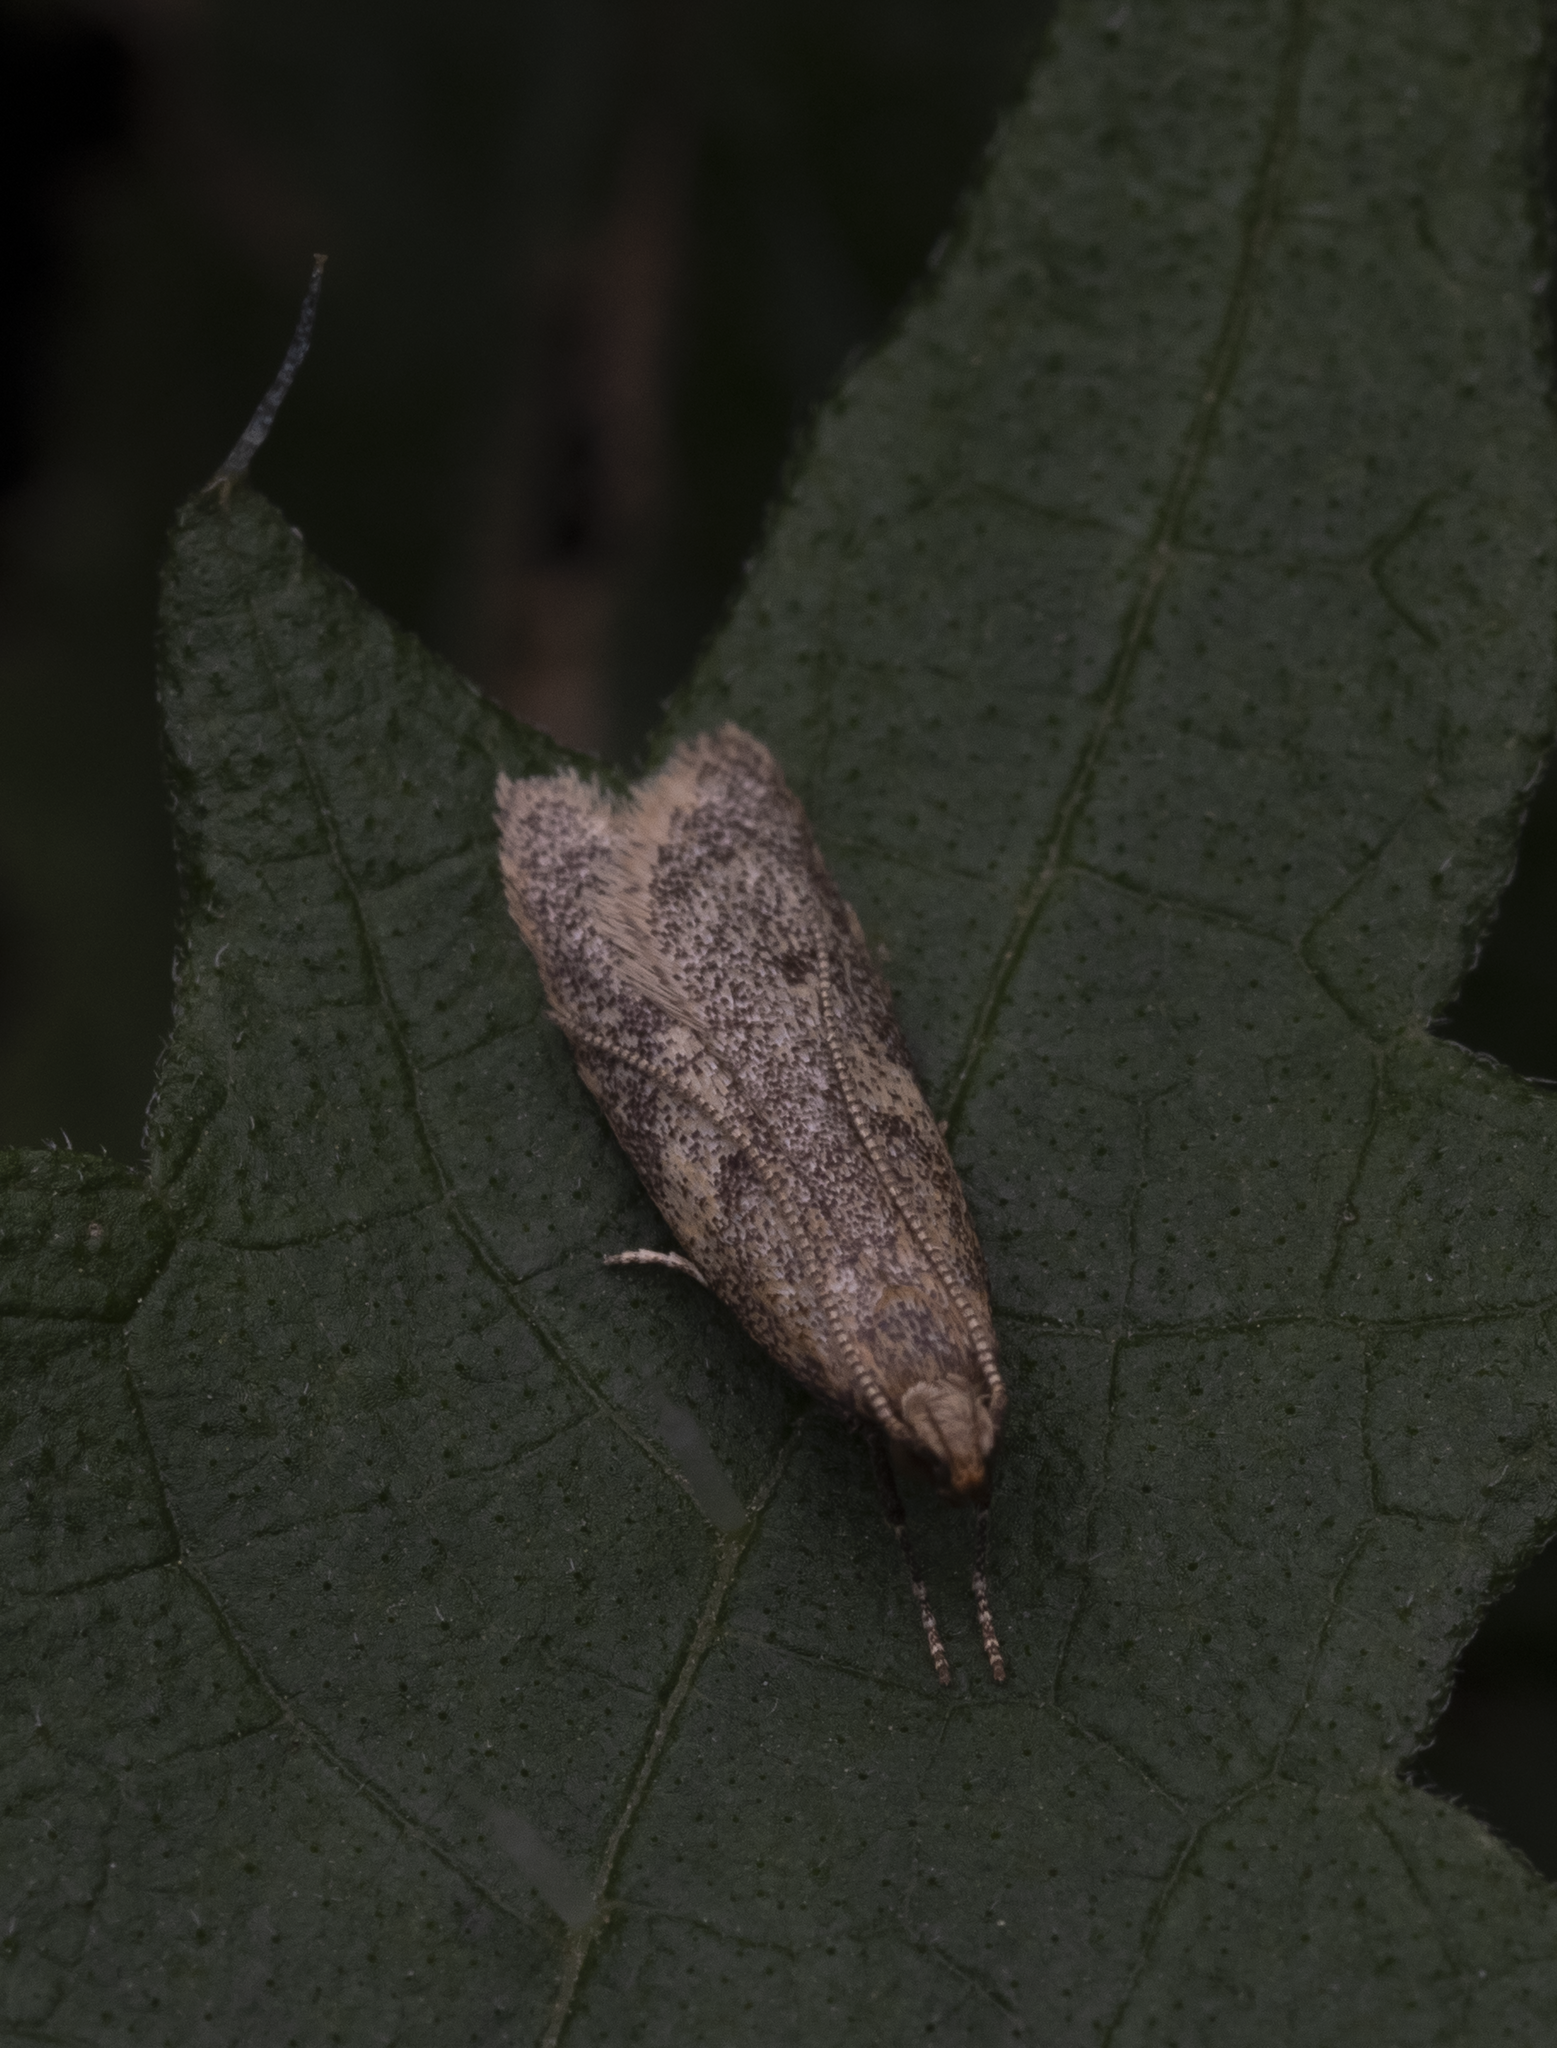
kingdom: Animalia
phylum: Arthropoda
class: Insecta
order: Lepidoptera
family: Oecophoridae
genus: Gymnobathra
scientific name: Gymnobathra tholodella
